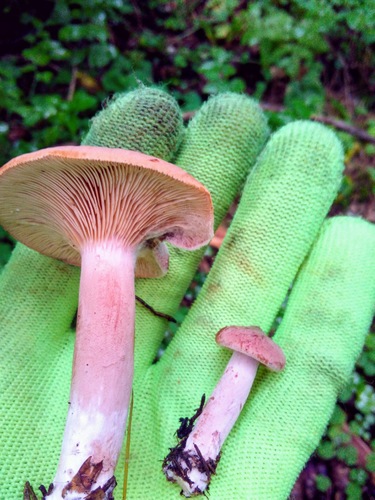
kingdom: Fungi
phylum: Basidiomycota
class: Agaricomycetes
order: Russulales
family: Russulaceae
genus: Lactarius
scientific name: Lactarius rufus
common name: Rufous milk-cap
